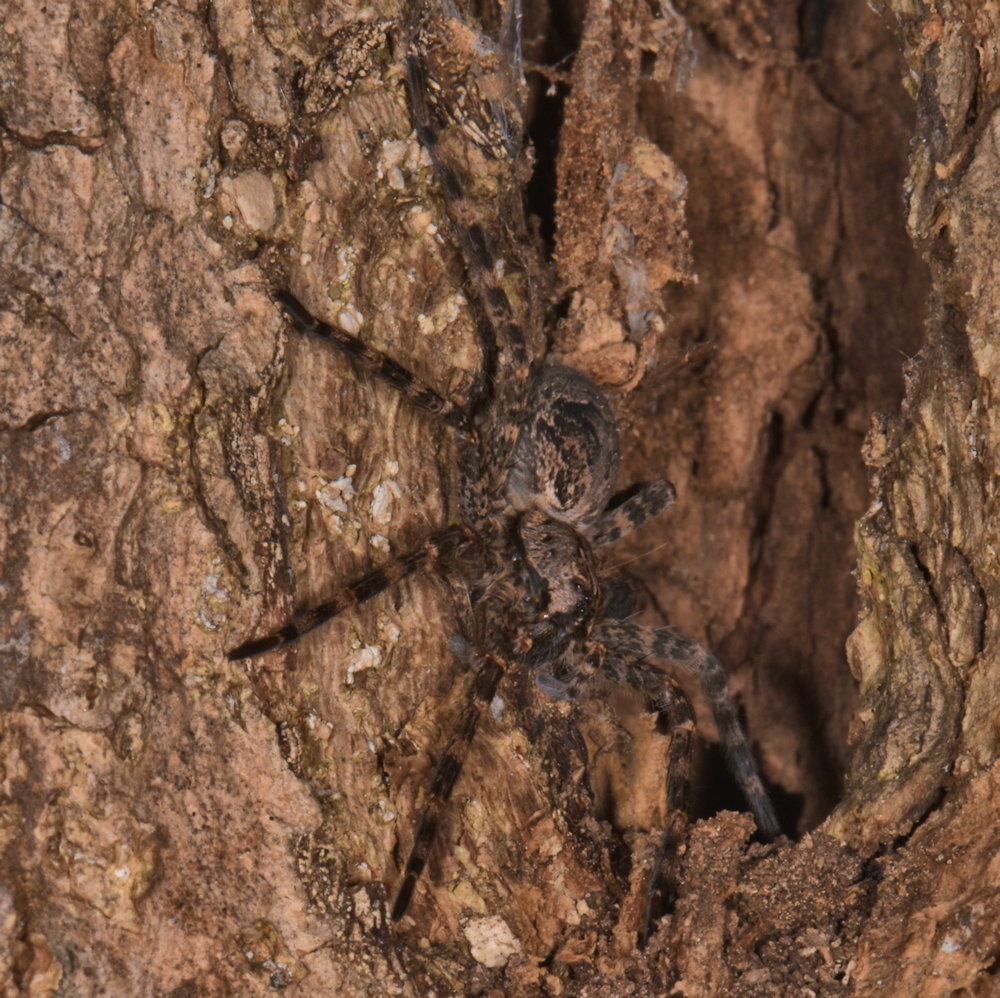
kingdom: Animalia
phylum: Arthropoda
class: Arachnida
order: Araneae
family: Pisauridae
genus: Dolomedes
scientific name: Dolomedes tenebrosus
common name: Dark fishing spider
